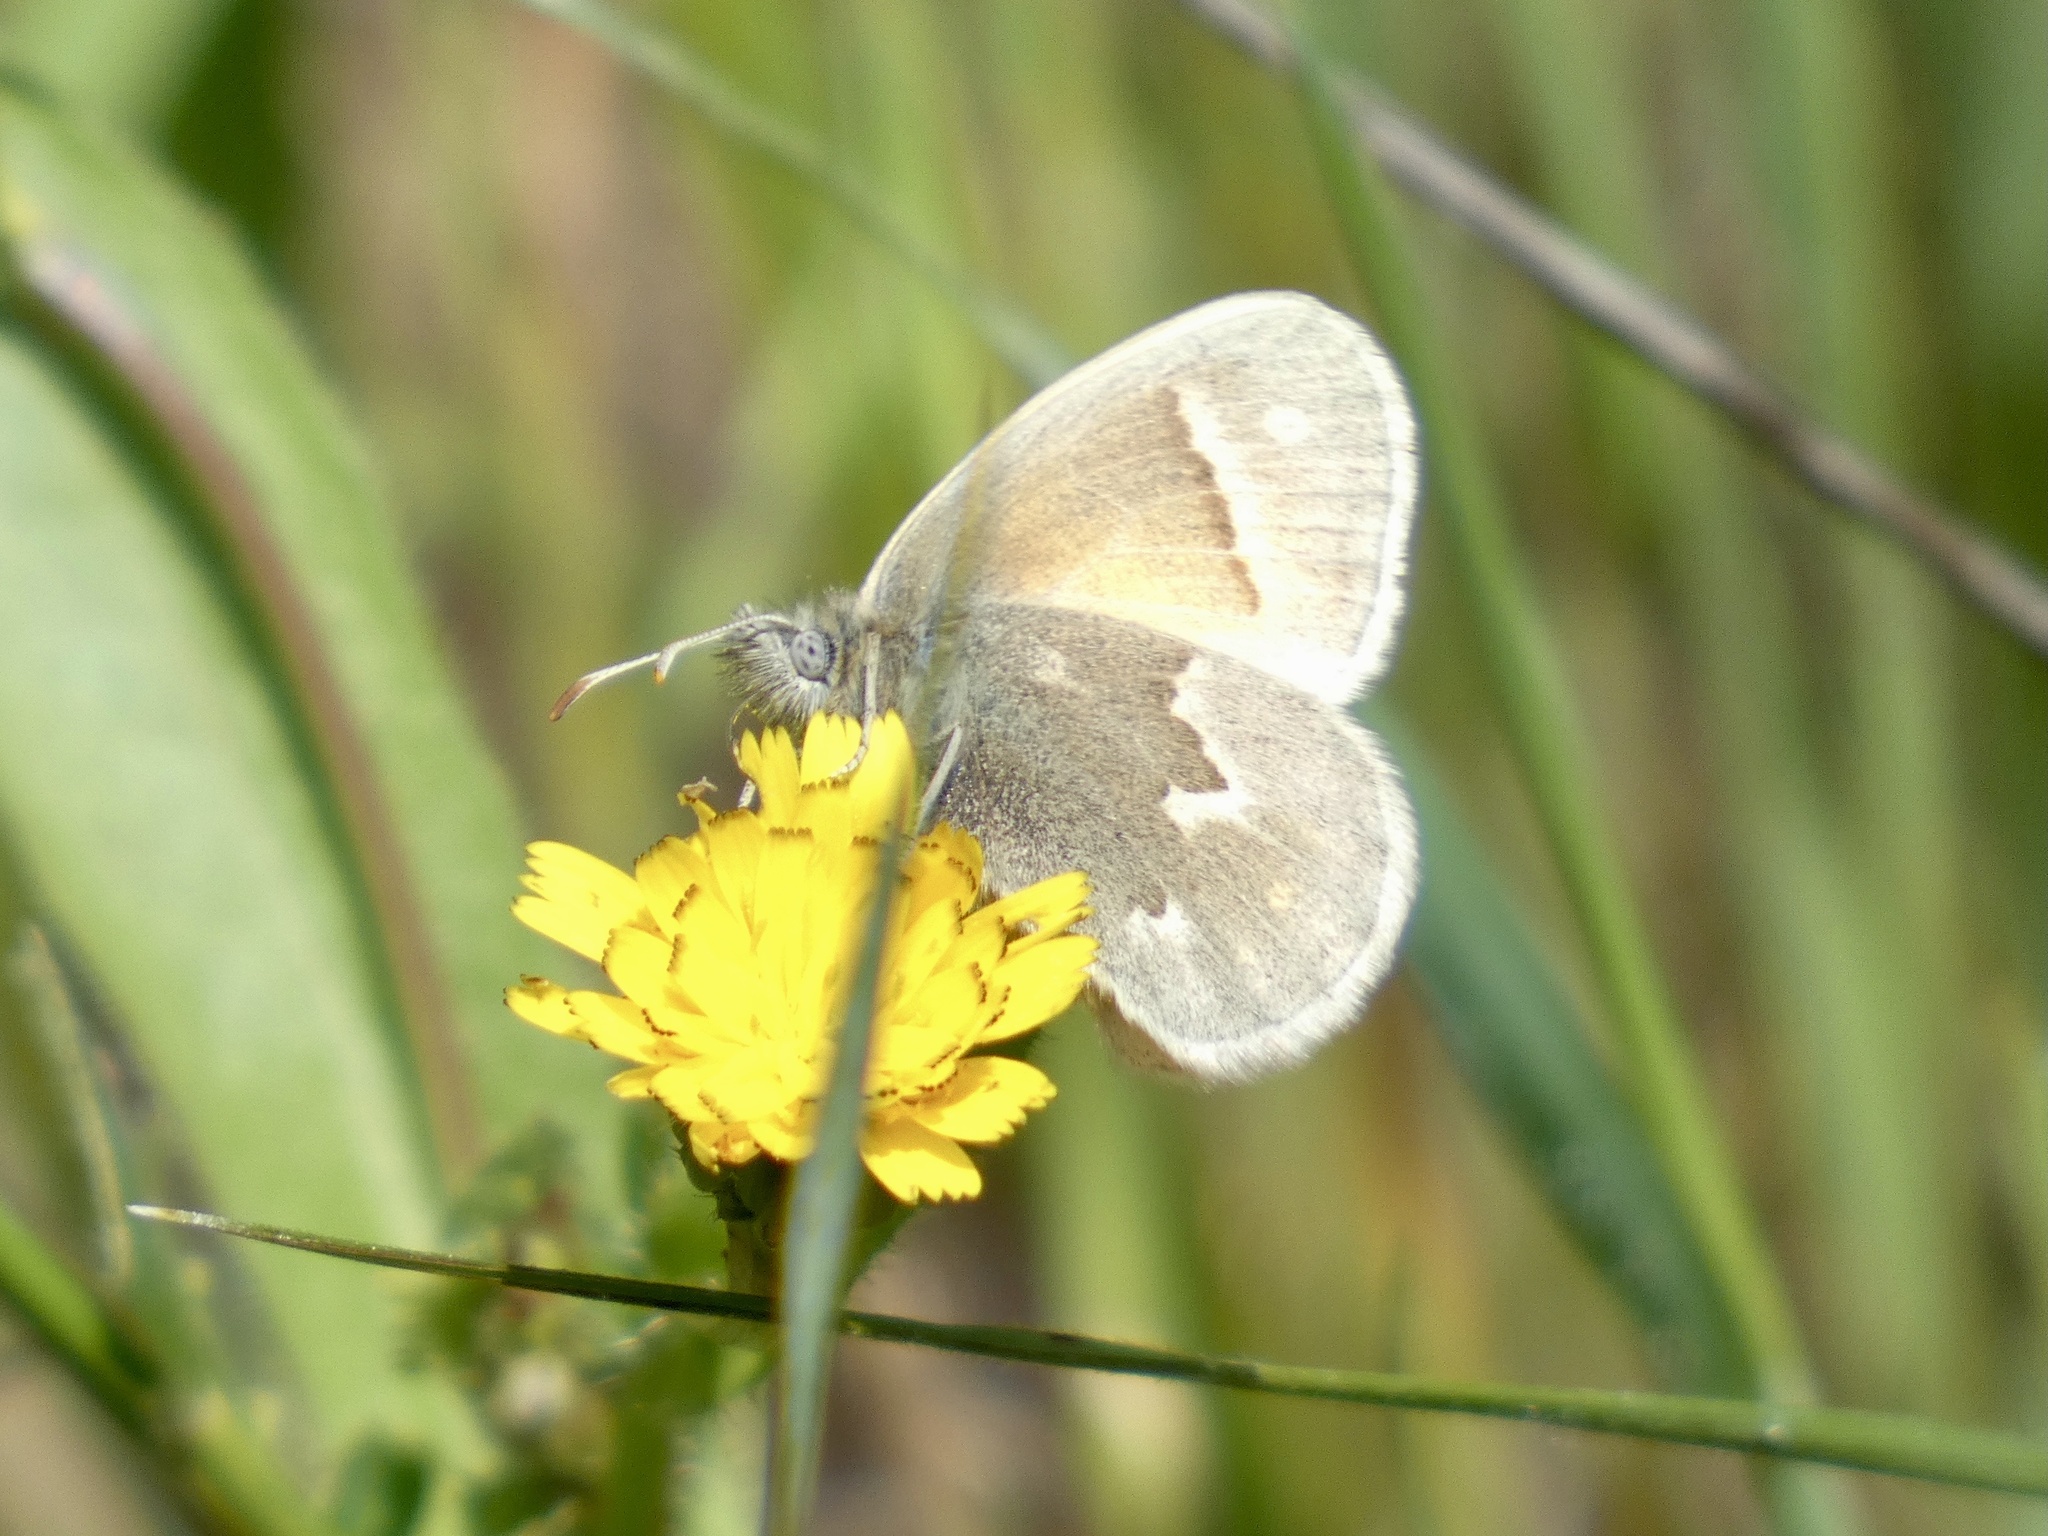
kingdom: Animalia
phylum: Arthropoda
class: Insecta
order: Lepidoptera
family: Nymphalidae
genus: Coenonympha
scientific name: Coenonympha california
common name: Common ringlet
